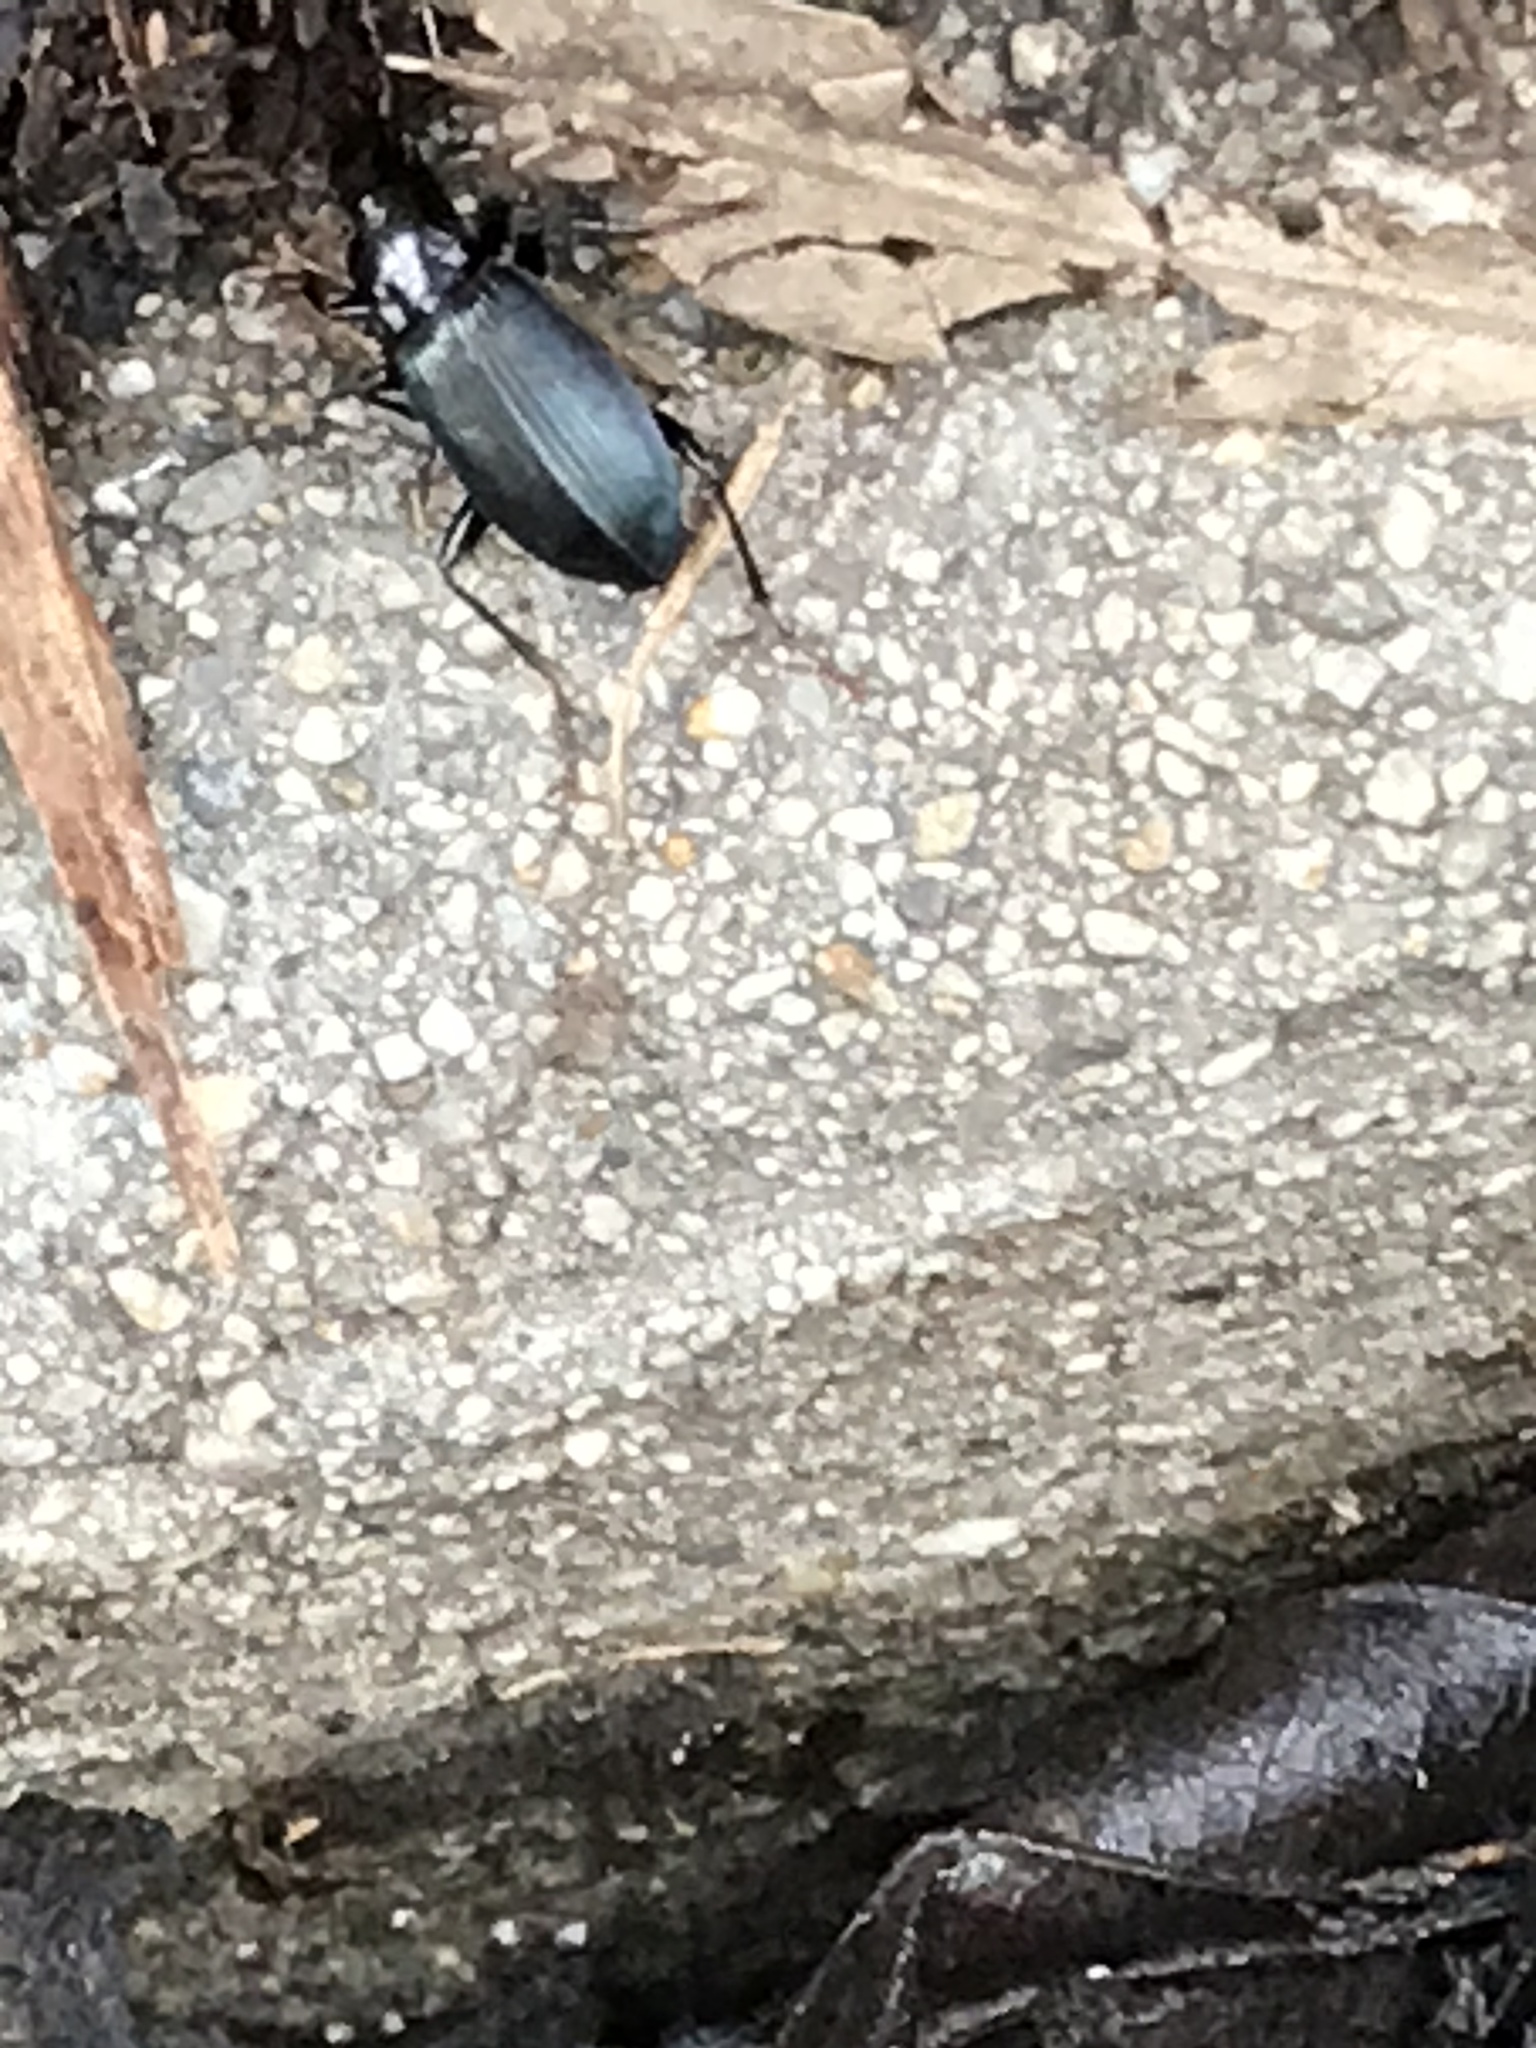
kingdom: Animalia
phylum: Arthropoda
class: Insecta
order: Coleoptera
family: Carabidae
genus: Laemostenus
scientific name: Laemostenus complanatus
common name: Cosmopolitan ground beetle
